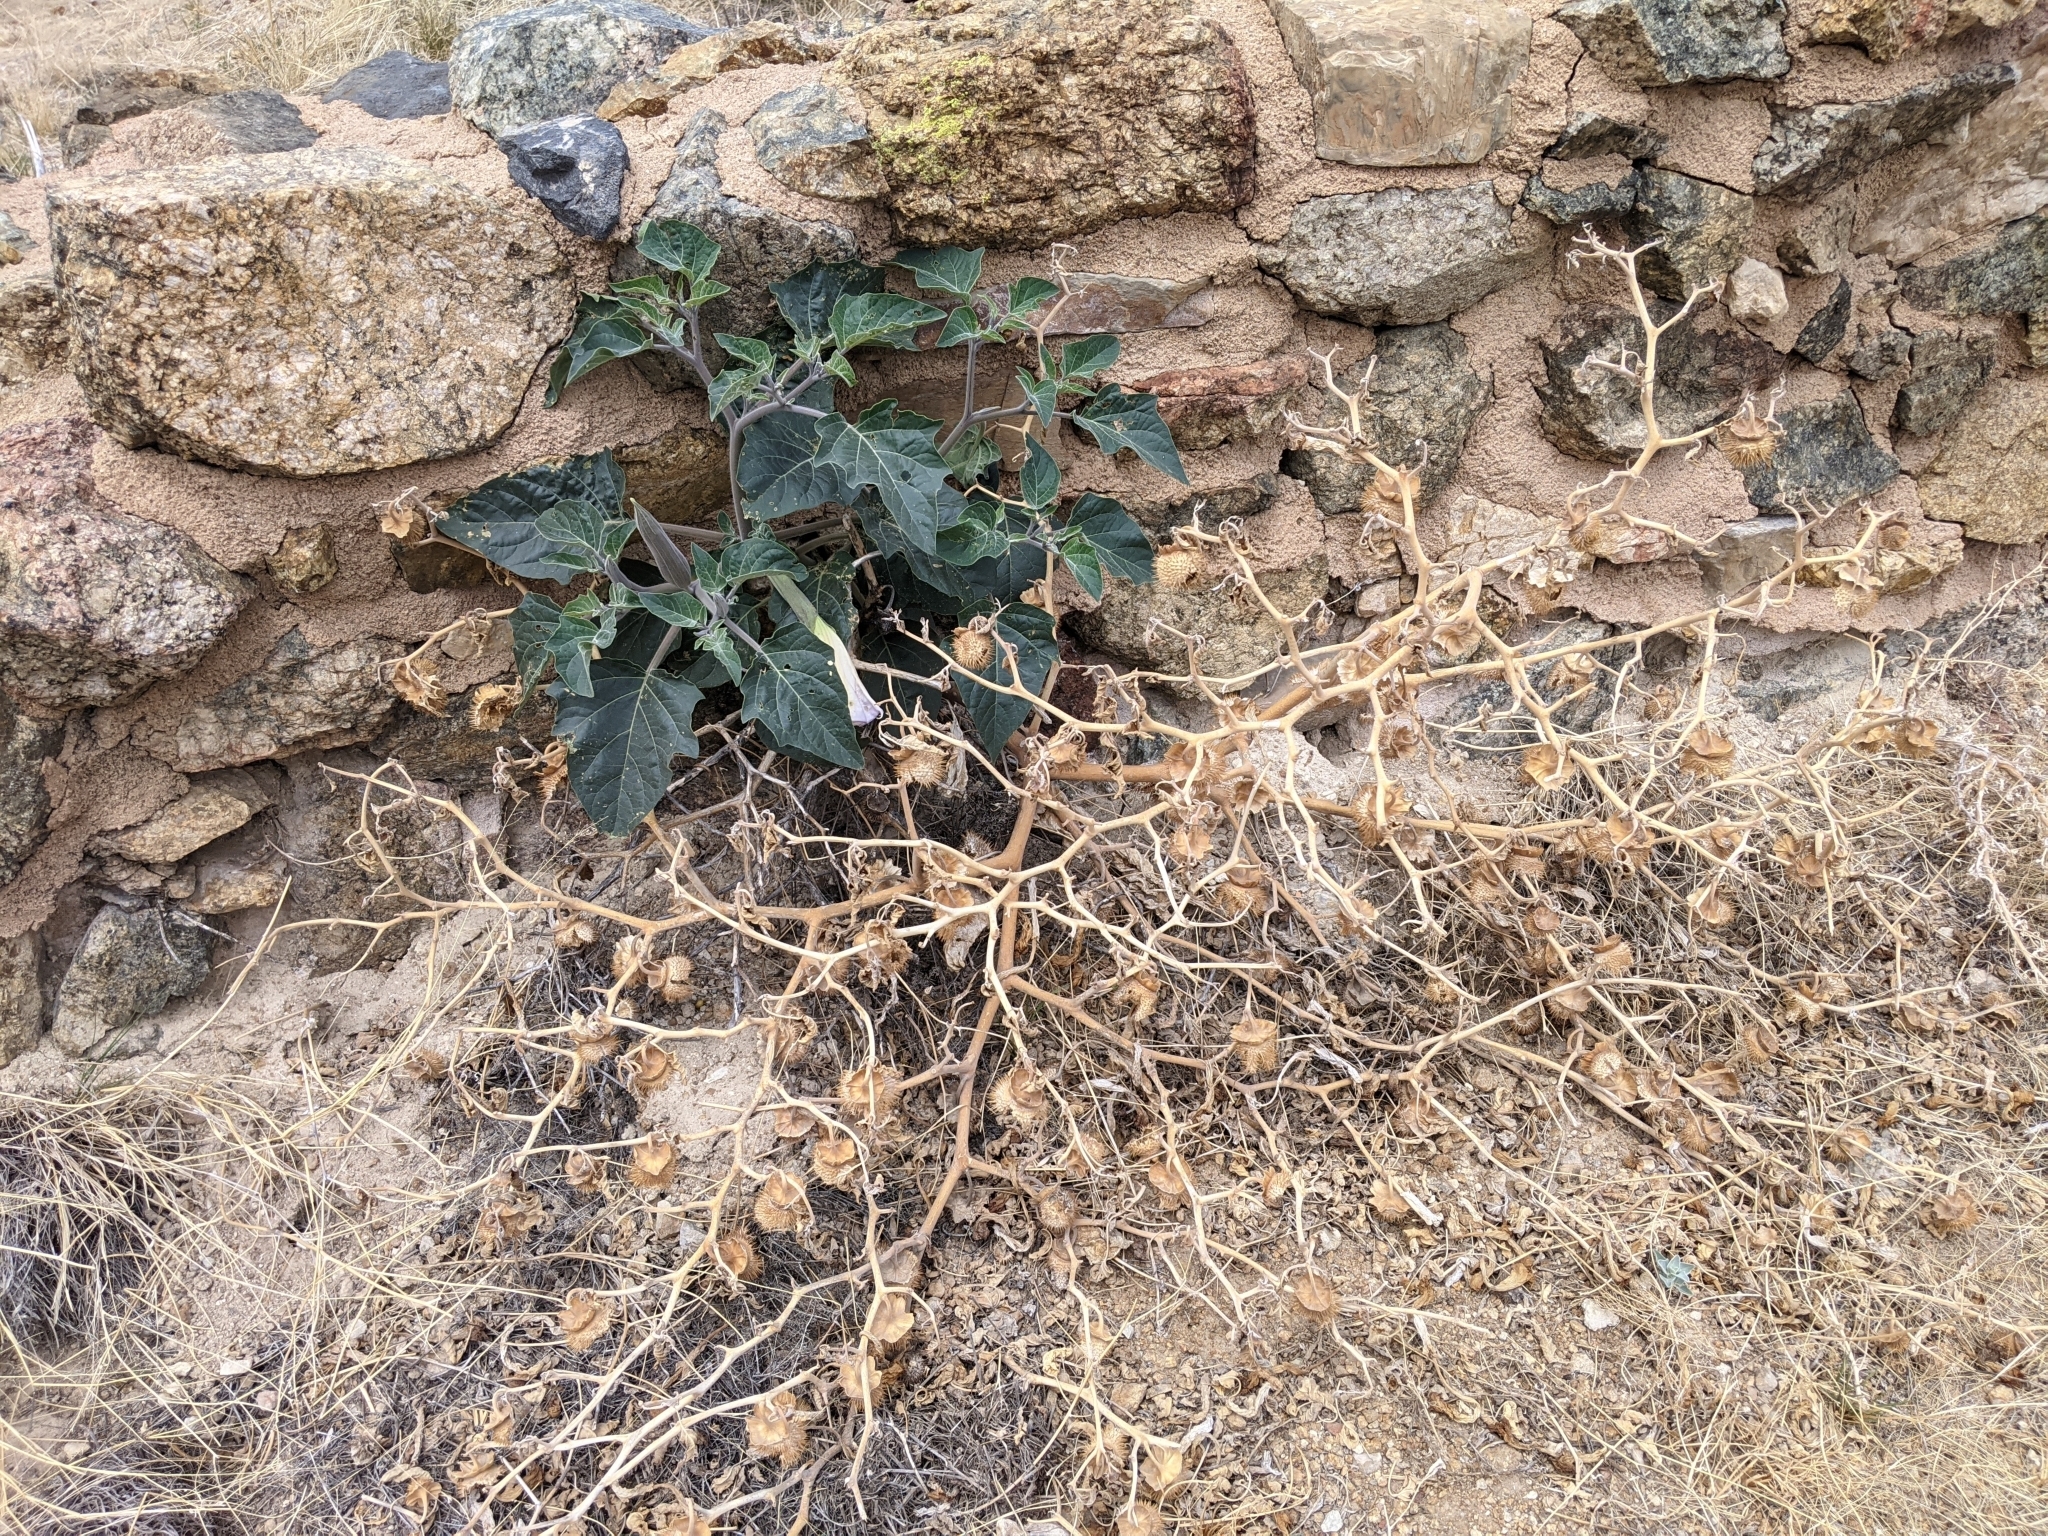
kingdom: Plantae
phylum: Tracheophyta
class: Magnoliopsida
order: Solanales
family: Solanaceae
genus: Datura
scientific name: Datura wrightii
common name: Sacred thorn-apple
